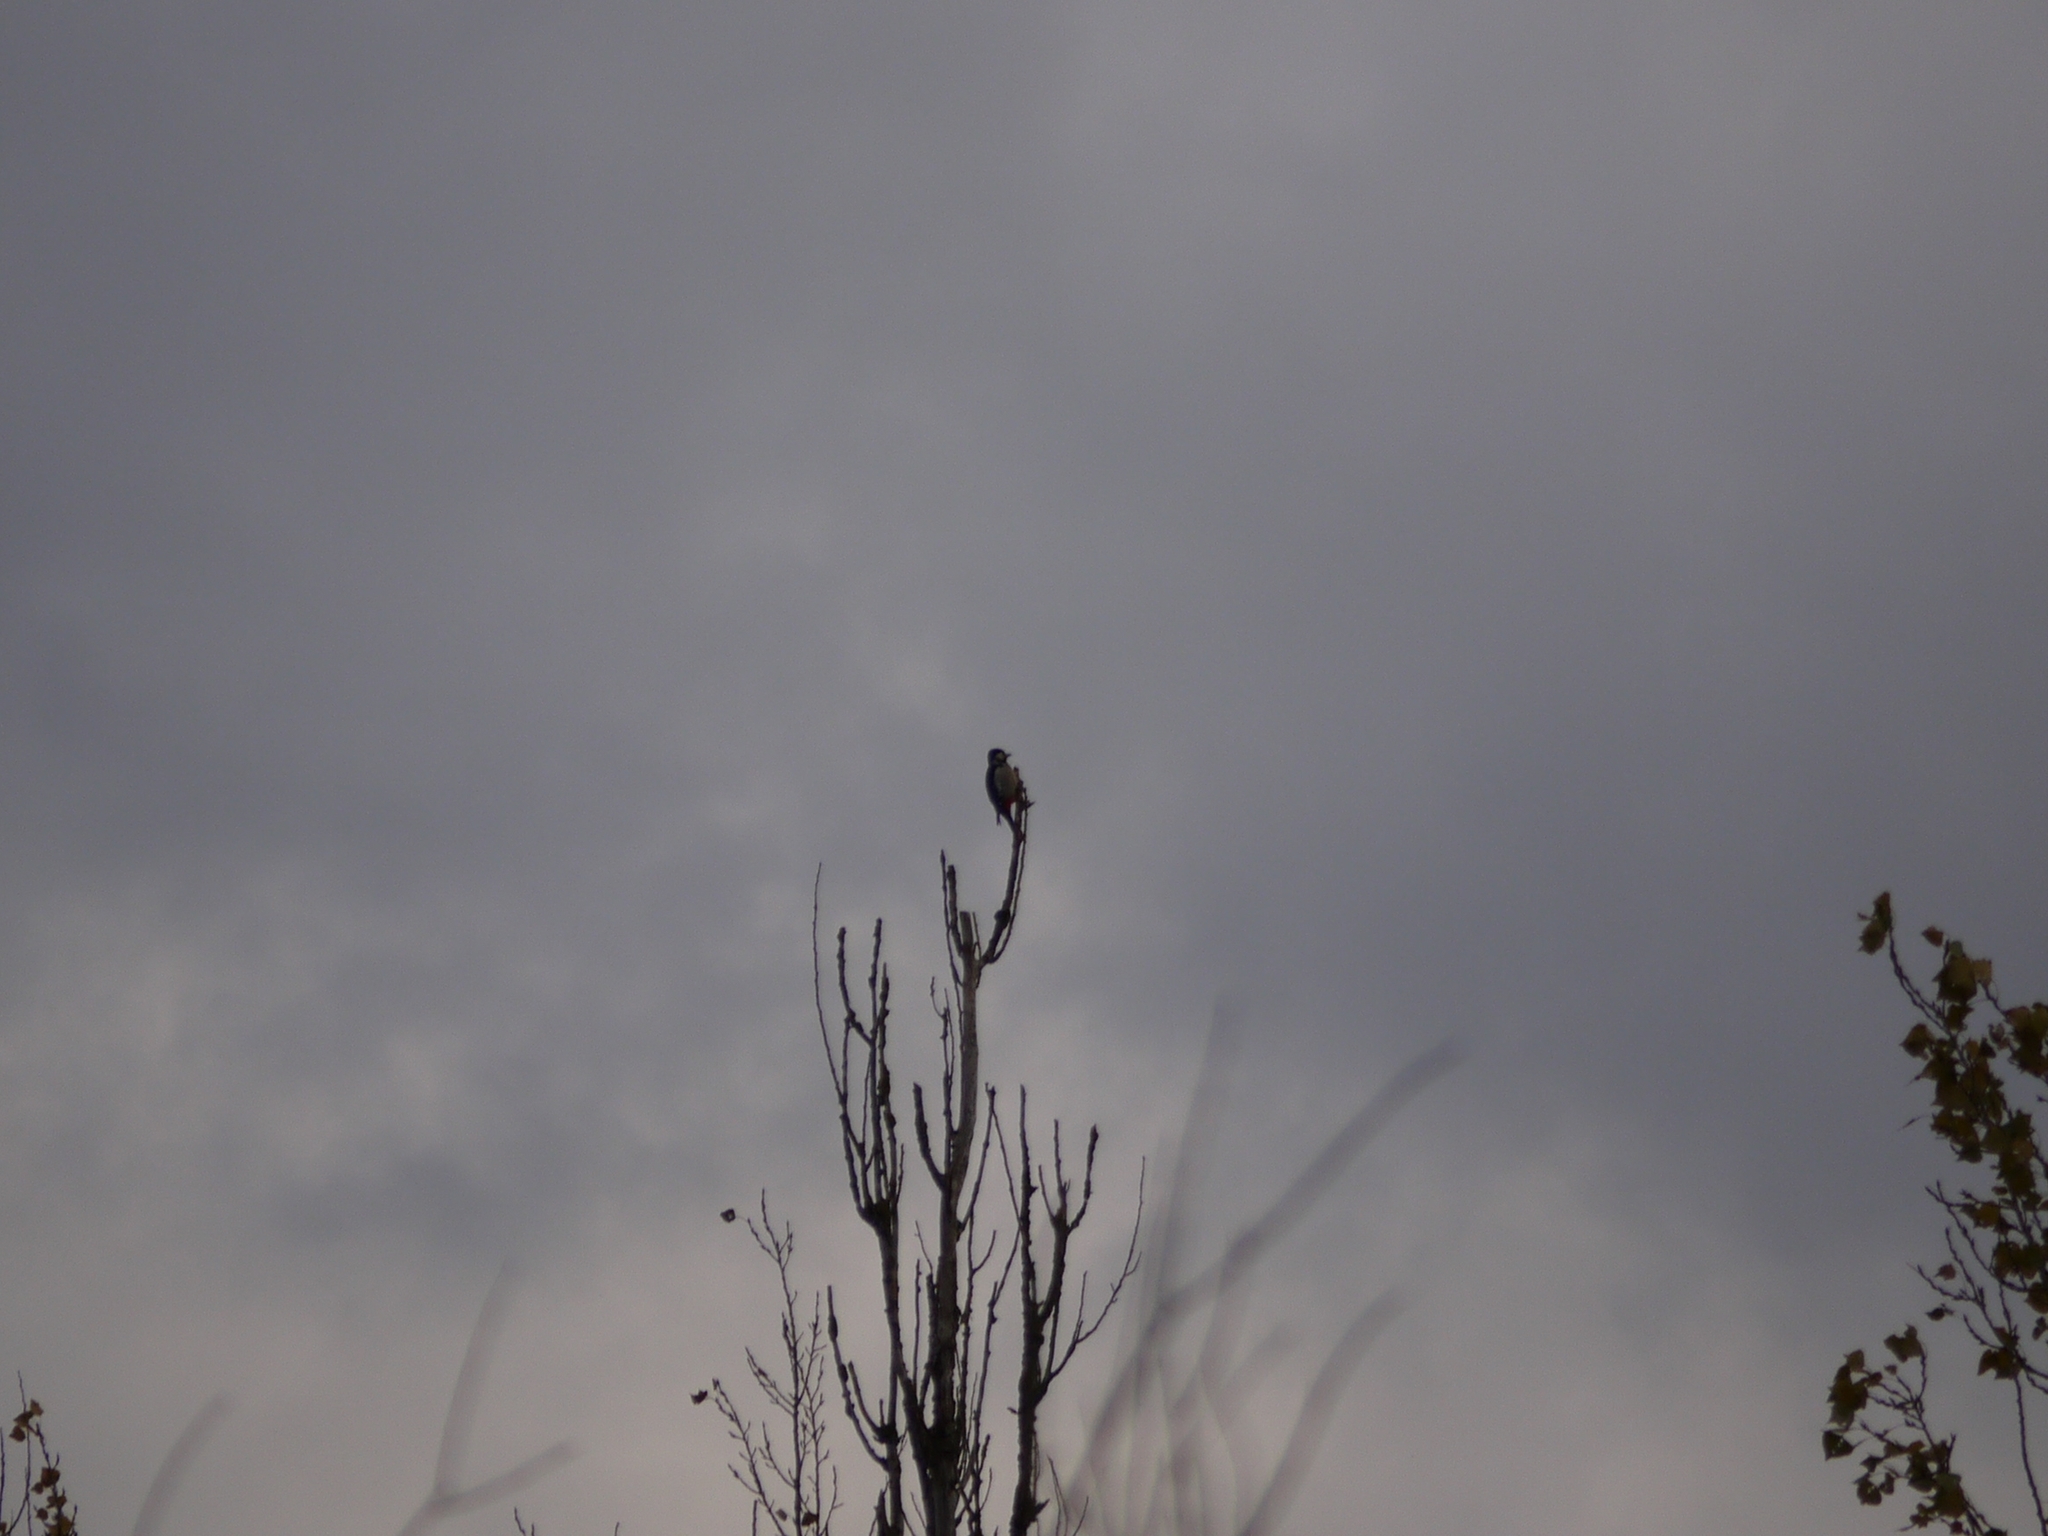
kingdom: Animalia
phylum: Chordata
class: Aves
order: Piciformes
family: Picidae
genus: Dendrocopos
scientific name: Dendrocopos major
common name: Great spotted woodpecker
